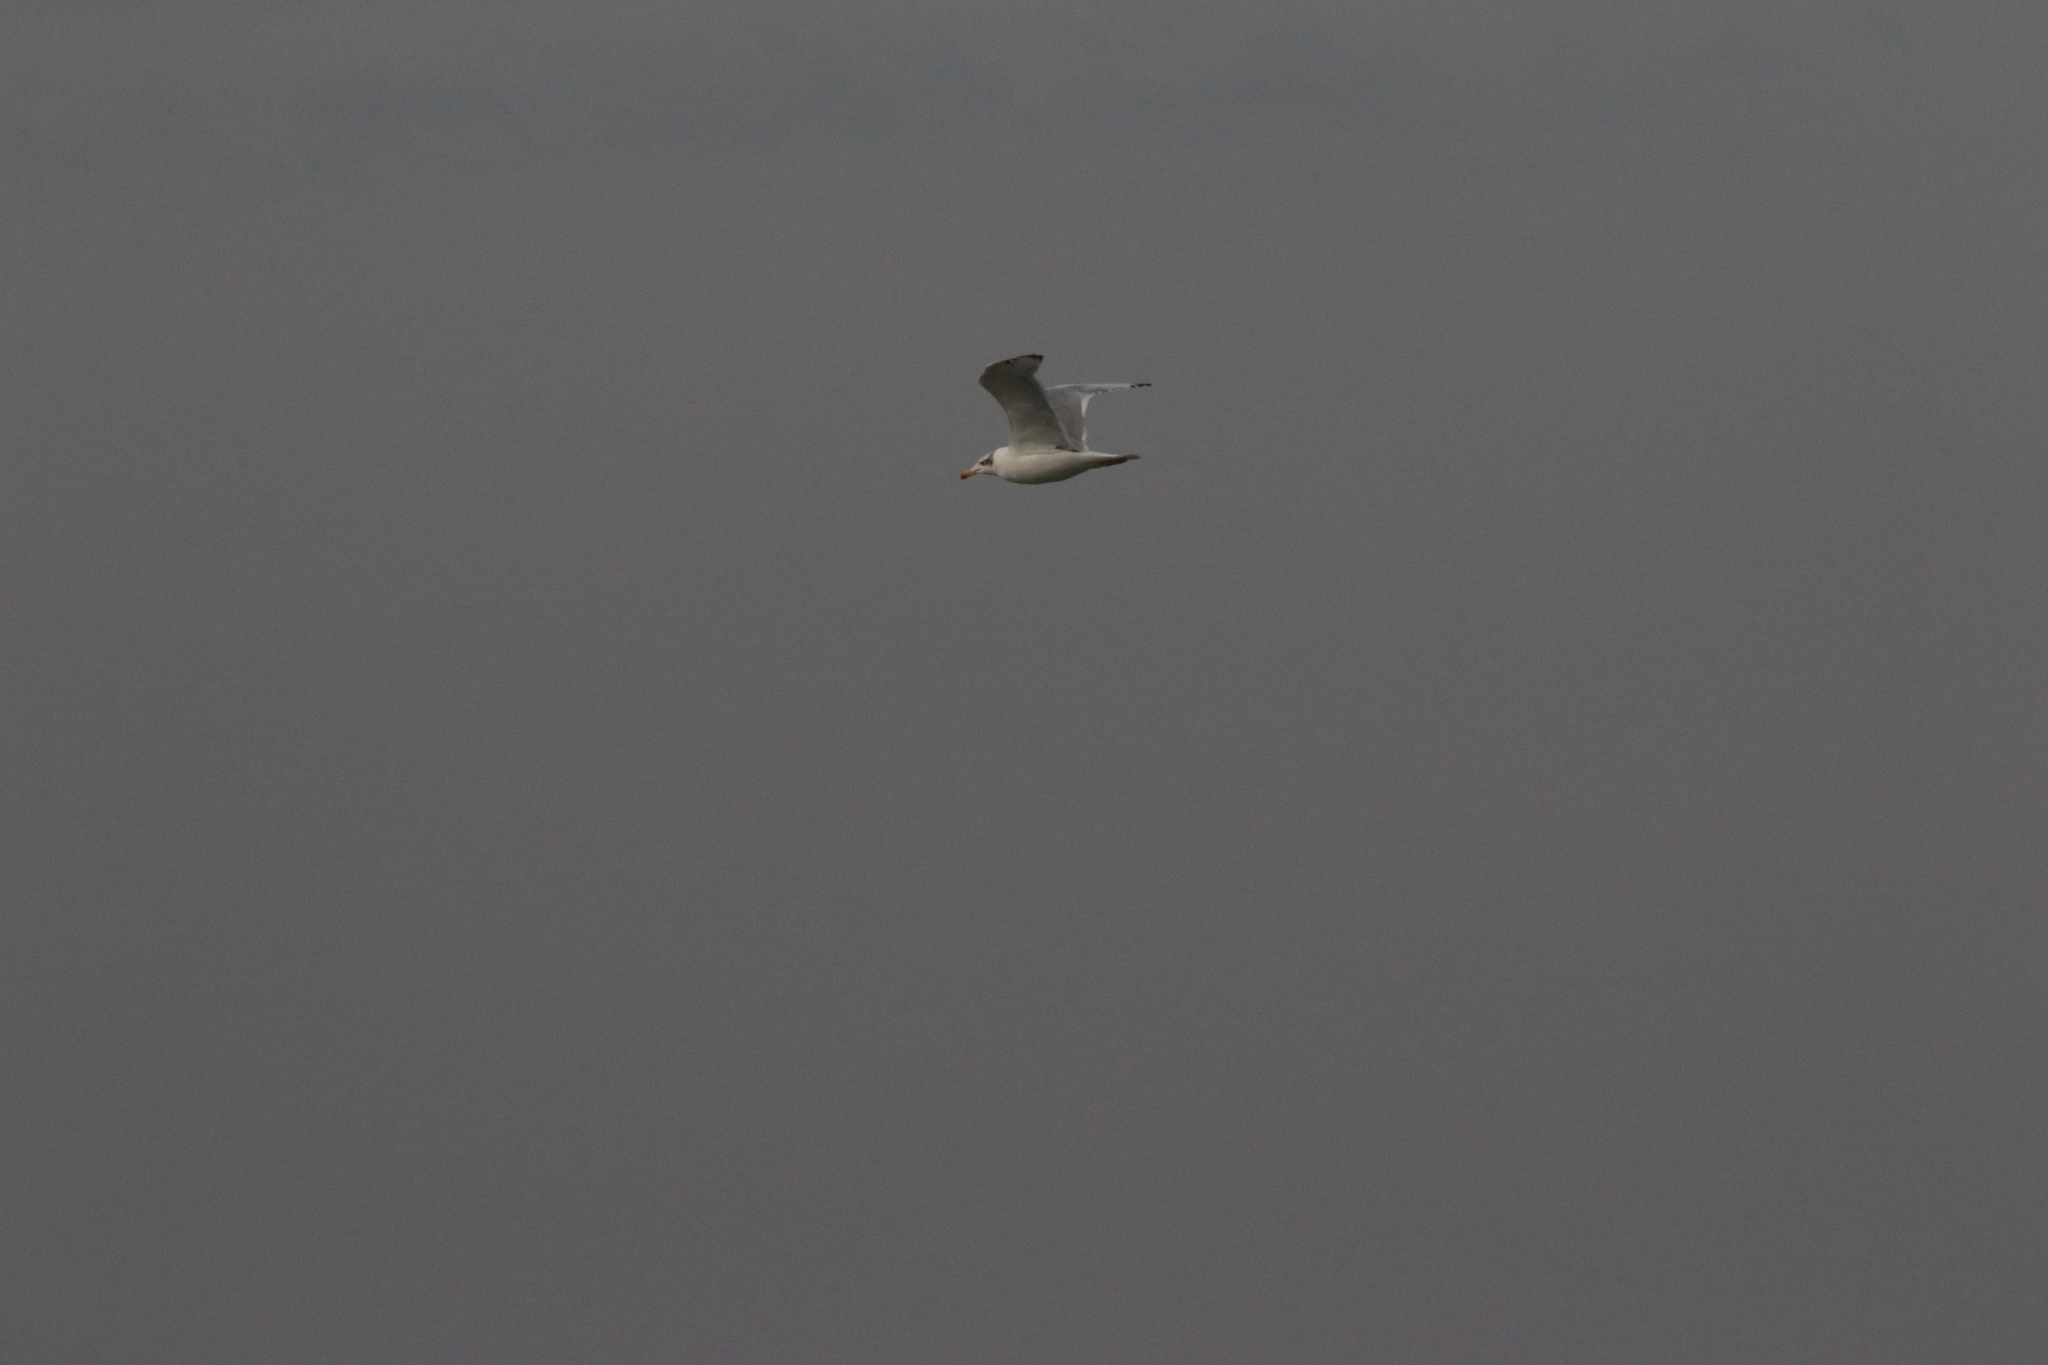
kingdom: Animalia
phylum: Chordata
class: Aves
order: Charadriiformes
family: Laridae
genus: Ichthyaetus
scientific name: Ichthyaetus ichthyaetus
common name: Pallas's gull
